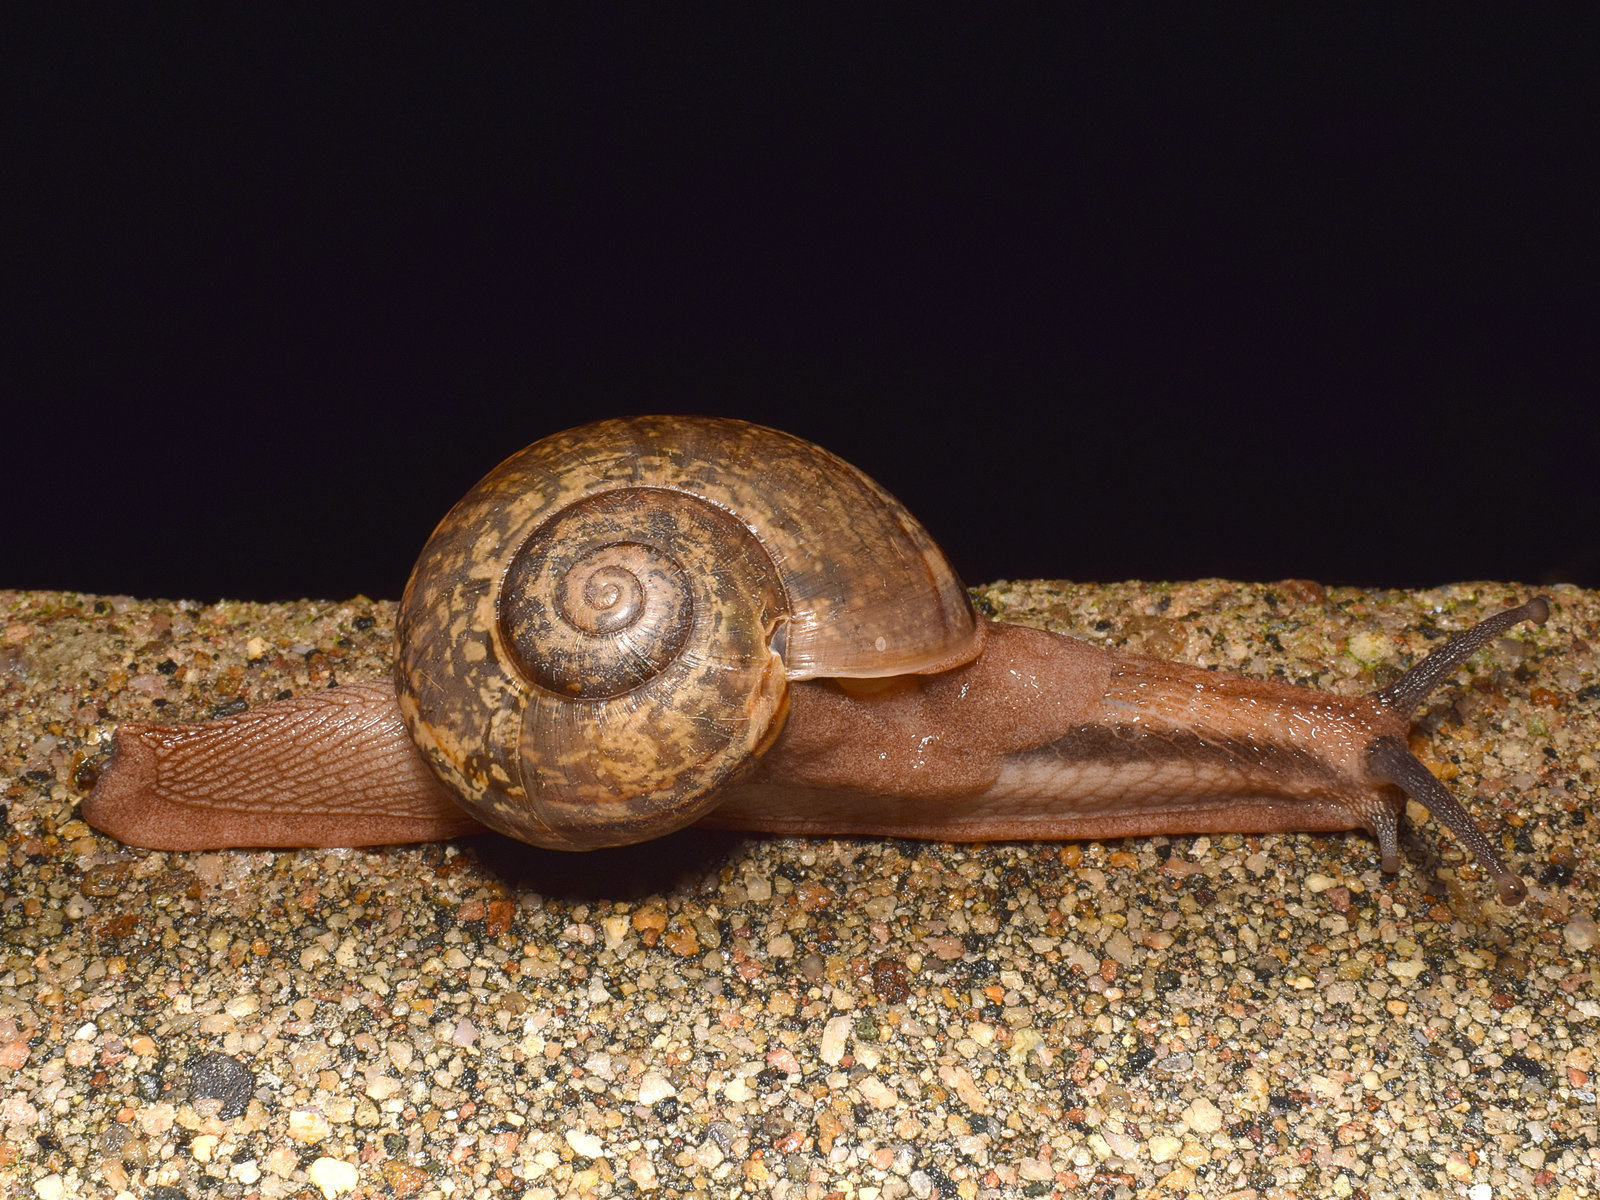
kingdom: Animalia
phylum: Mollusca
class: Gastropoda
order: Stylommatophora
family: Ariophantidae
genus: Ariophanta
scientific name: Ariophanta exilis
